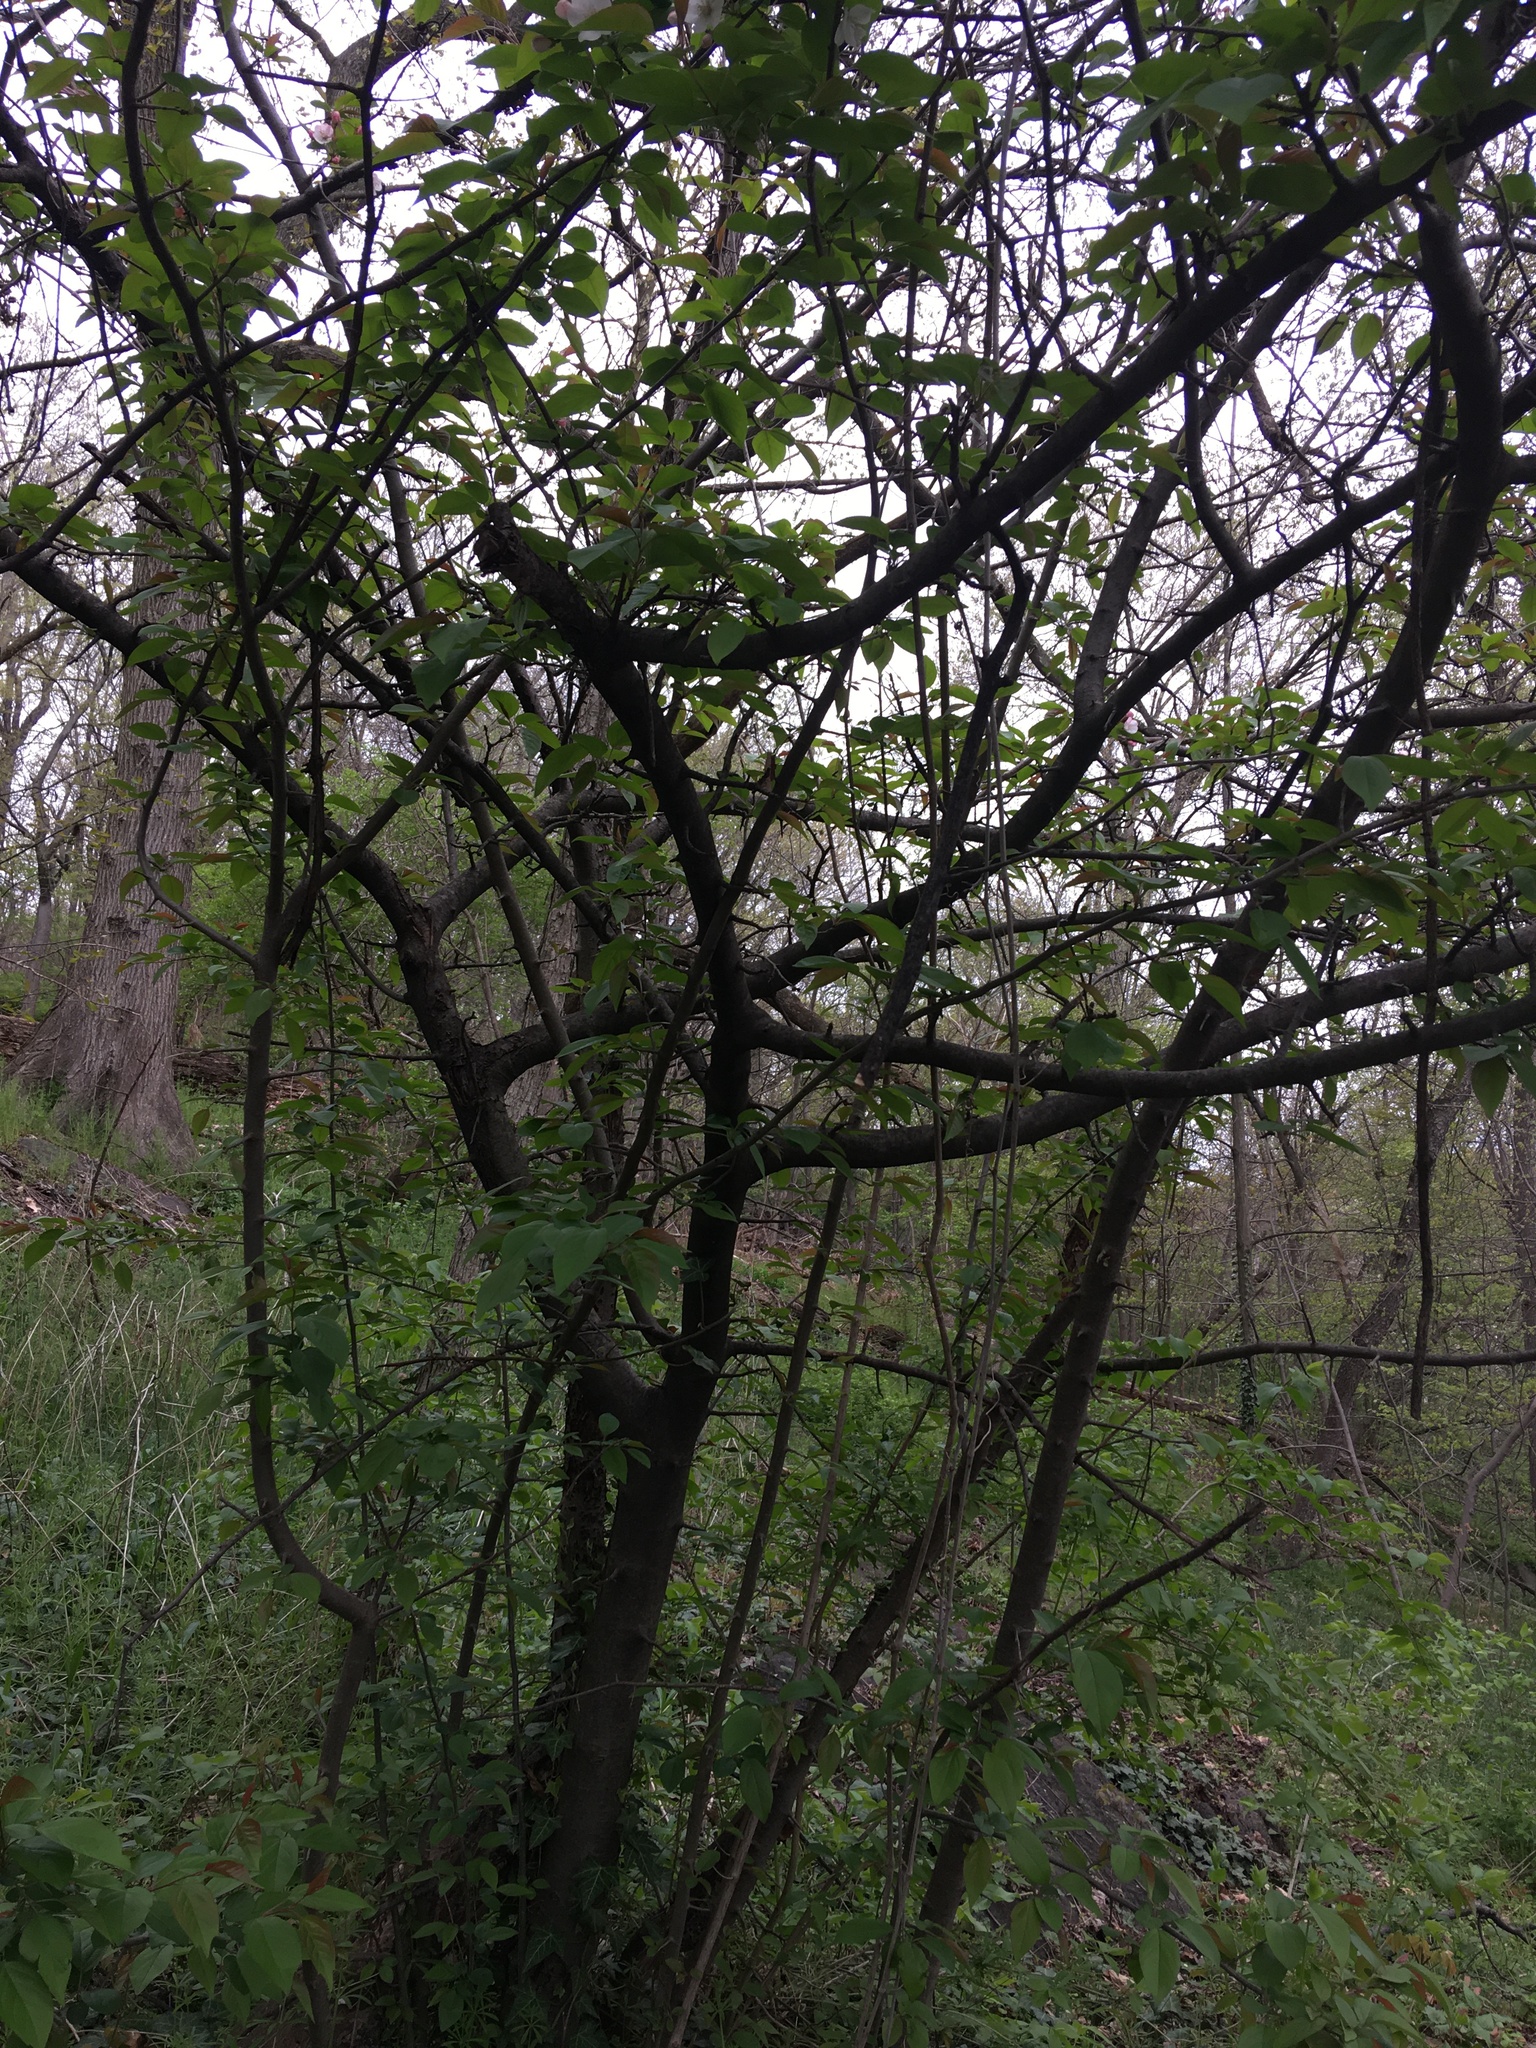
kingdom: Plantae
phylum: Tracheophyta
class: Magnoliopsida
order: Rosales
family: Rosaceae
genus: Malus
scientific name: Malus hupehensis
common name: Chinese crab apple
